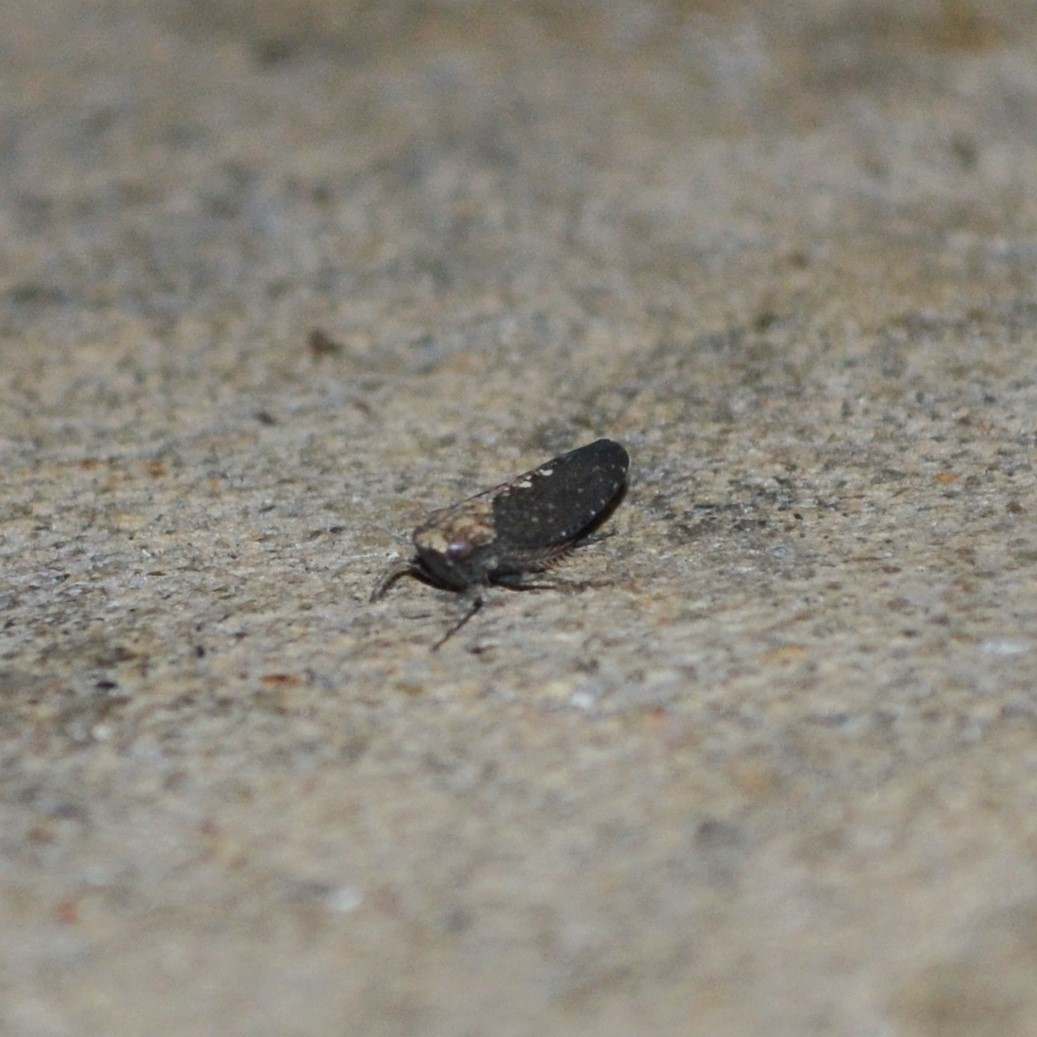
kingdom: Animalia
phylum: Arthropoda
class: Insecta
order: Hemiptera
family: Cicadellidae
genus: Excultanus
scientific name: Excultanus excultus
